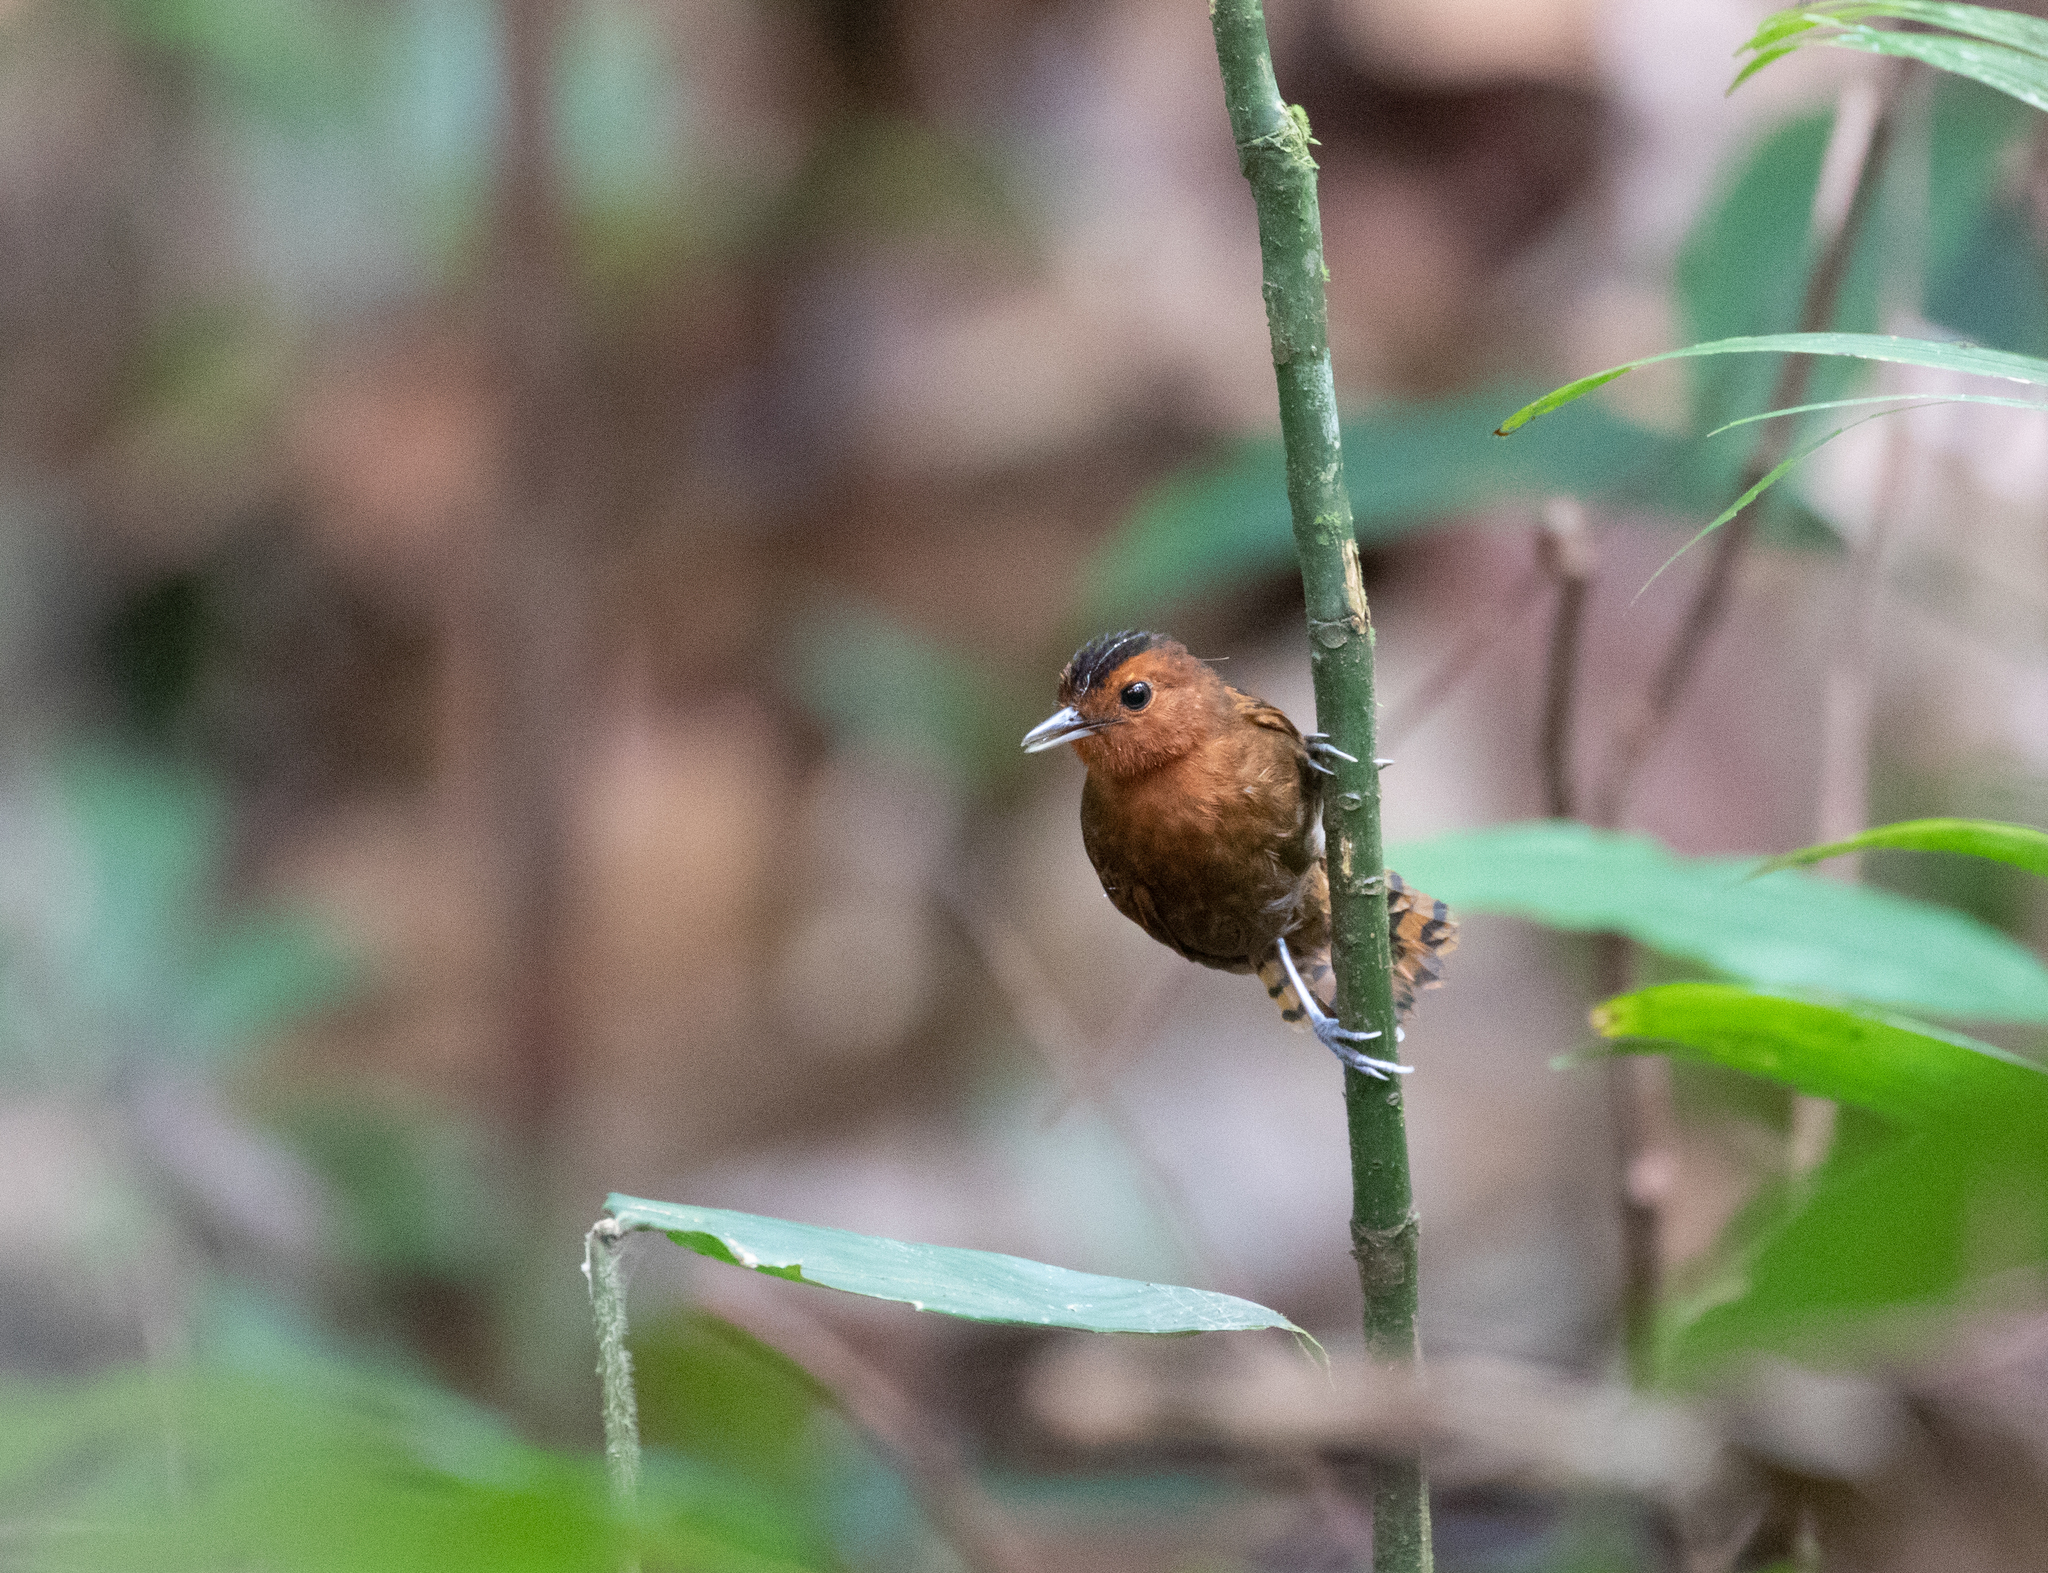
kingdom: Animalia
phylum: Chordata
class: Aves
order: Passeriformes
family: Thamnophilidae
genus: Gymnopithys
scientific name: Gymnopithys salvini
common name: White-throated antbird
